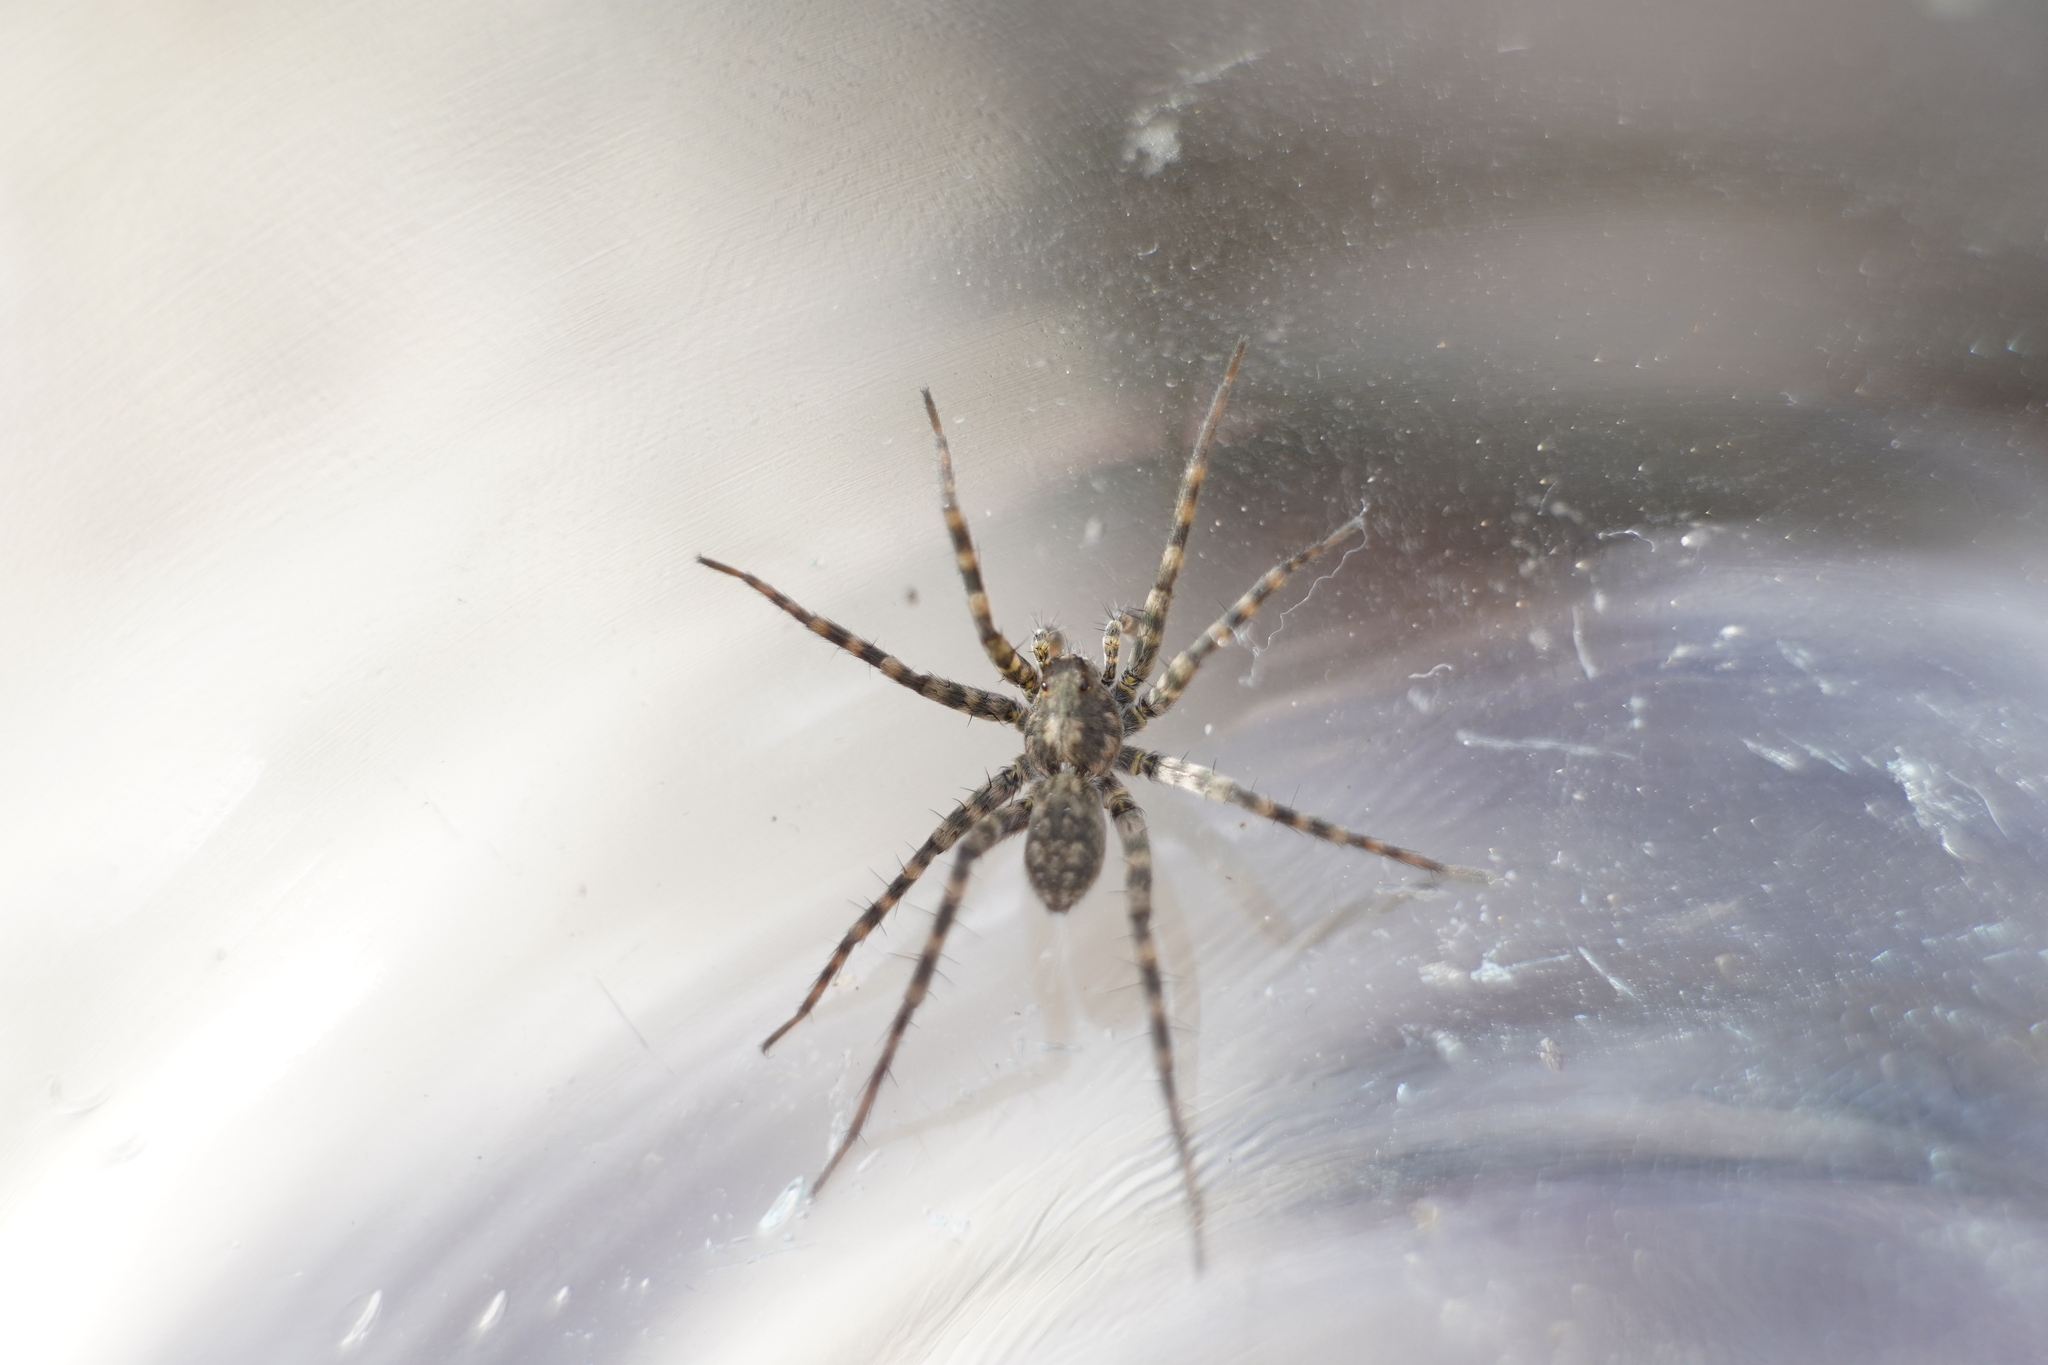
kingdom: Animalia
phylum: Arthropoda
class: Arachnida
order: Araneae
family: Lycosidae
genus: Pardosa
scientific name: Pardosa lapidicina
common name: Stone spider
